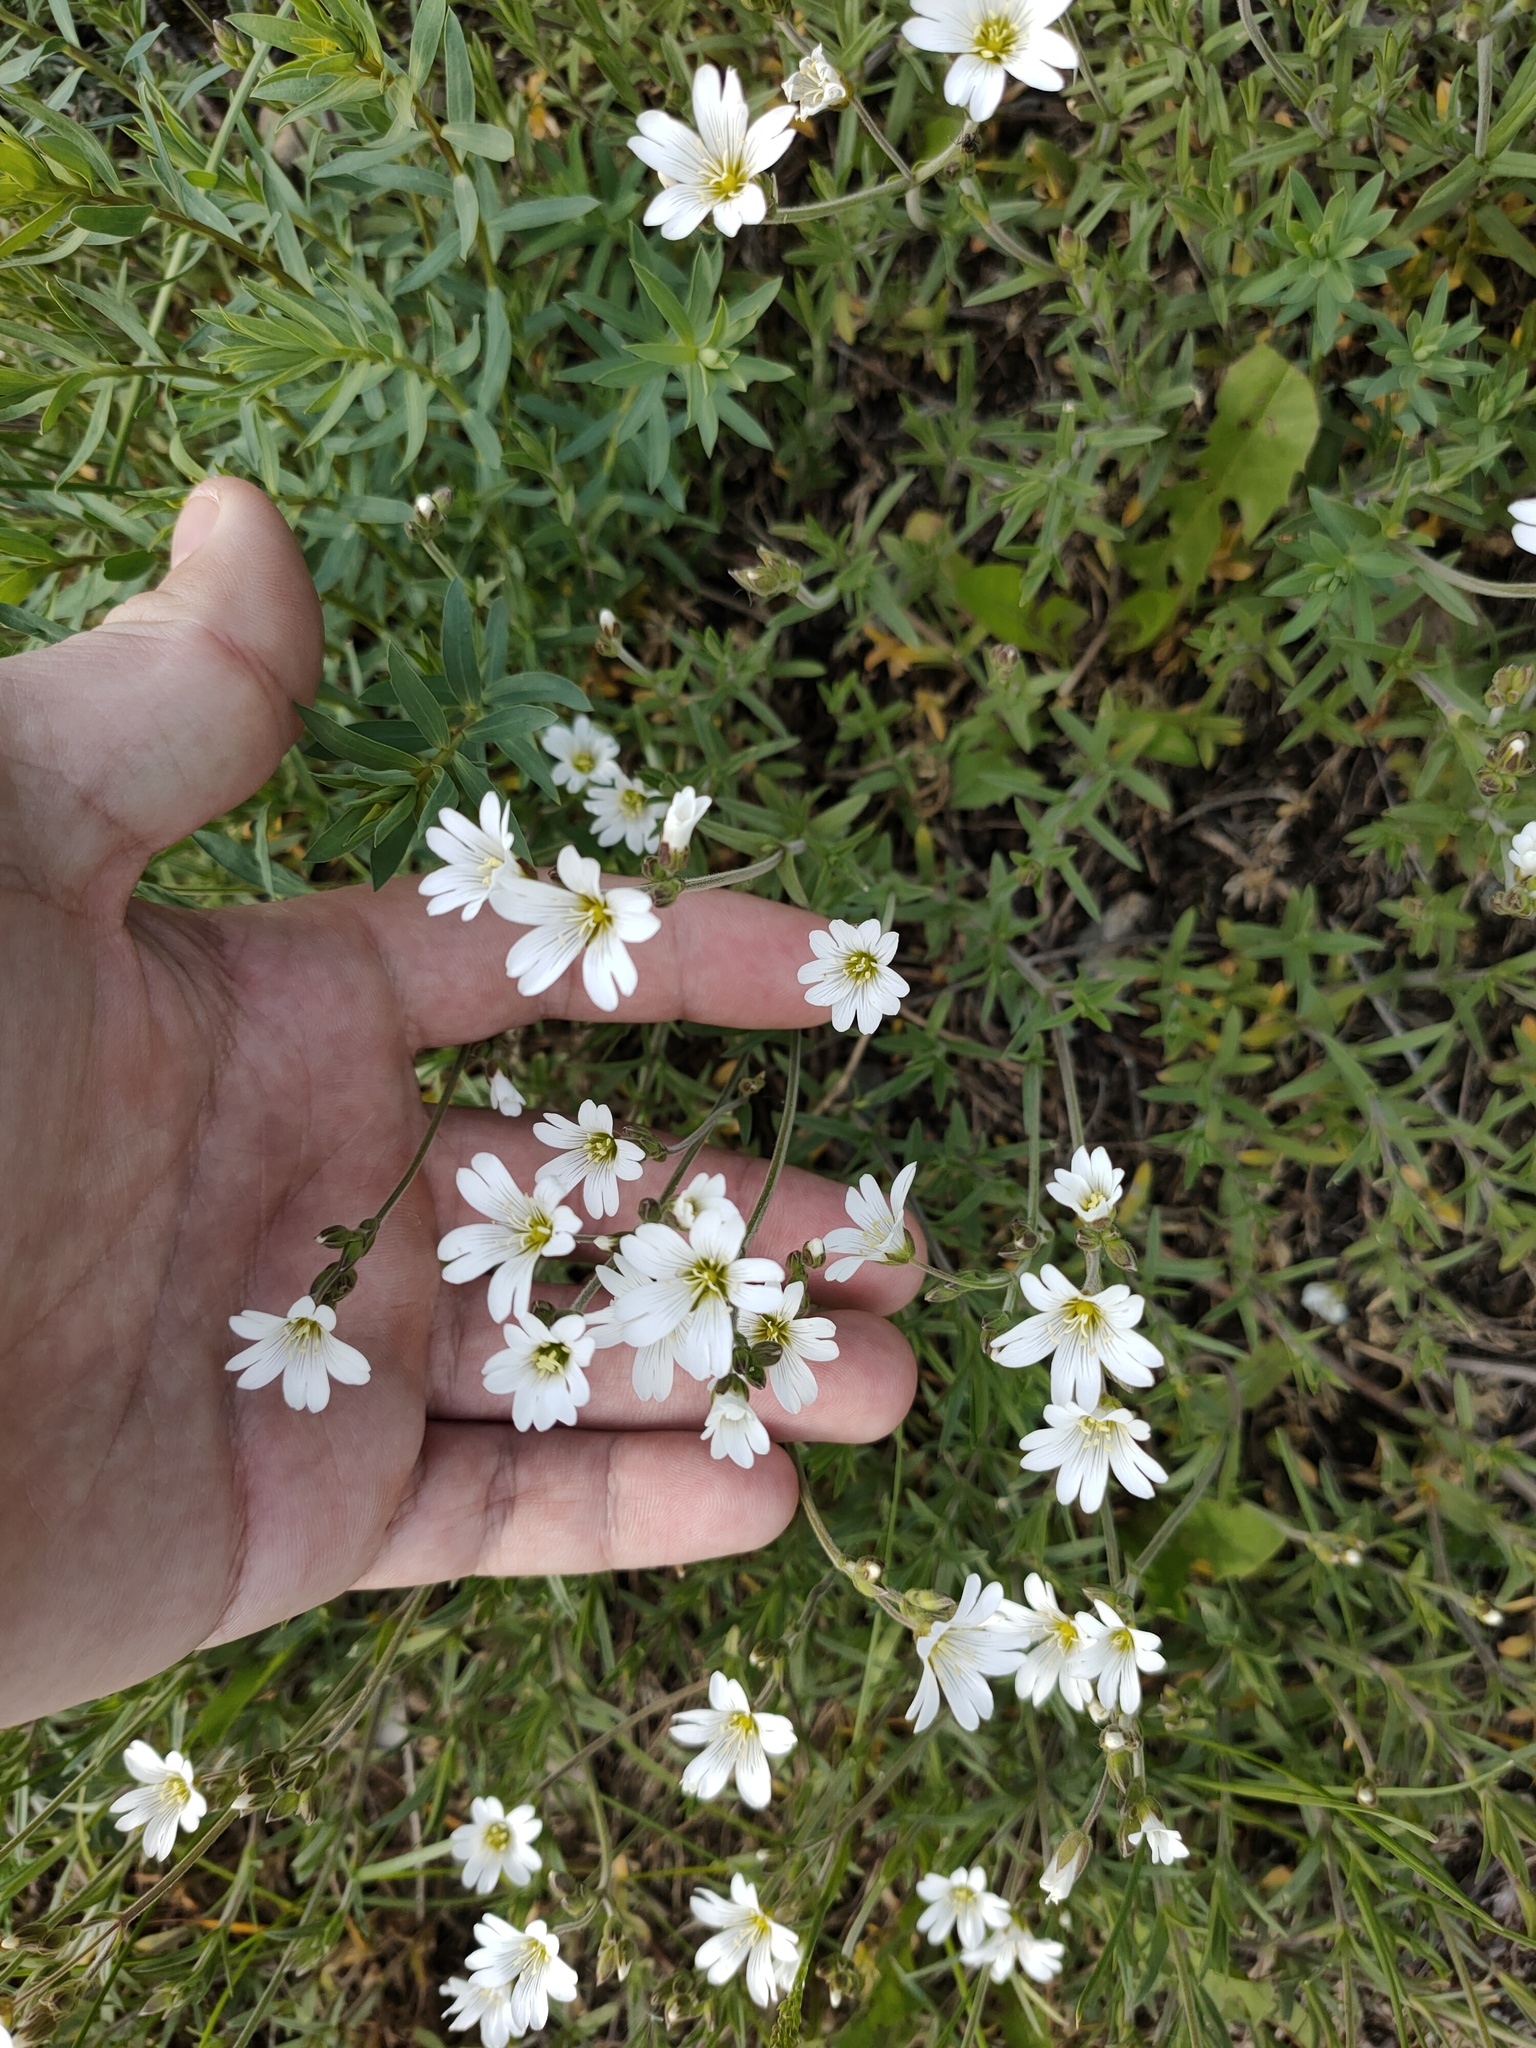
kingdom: Plantae
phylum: Tracheophyta
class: Magnoliopsida
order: Caryophyllales
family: Caryophyllaceae
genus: Cerastium
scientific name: Cerastium arvense
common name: Field mouse-ear
